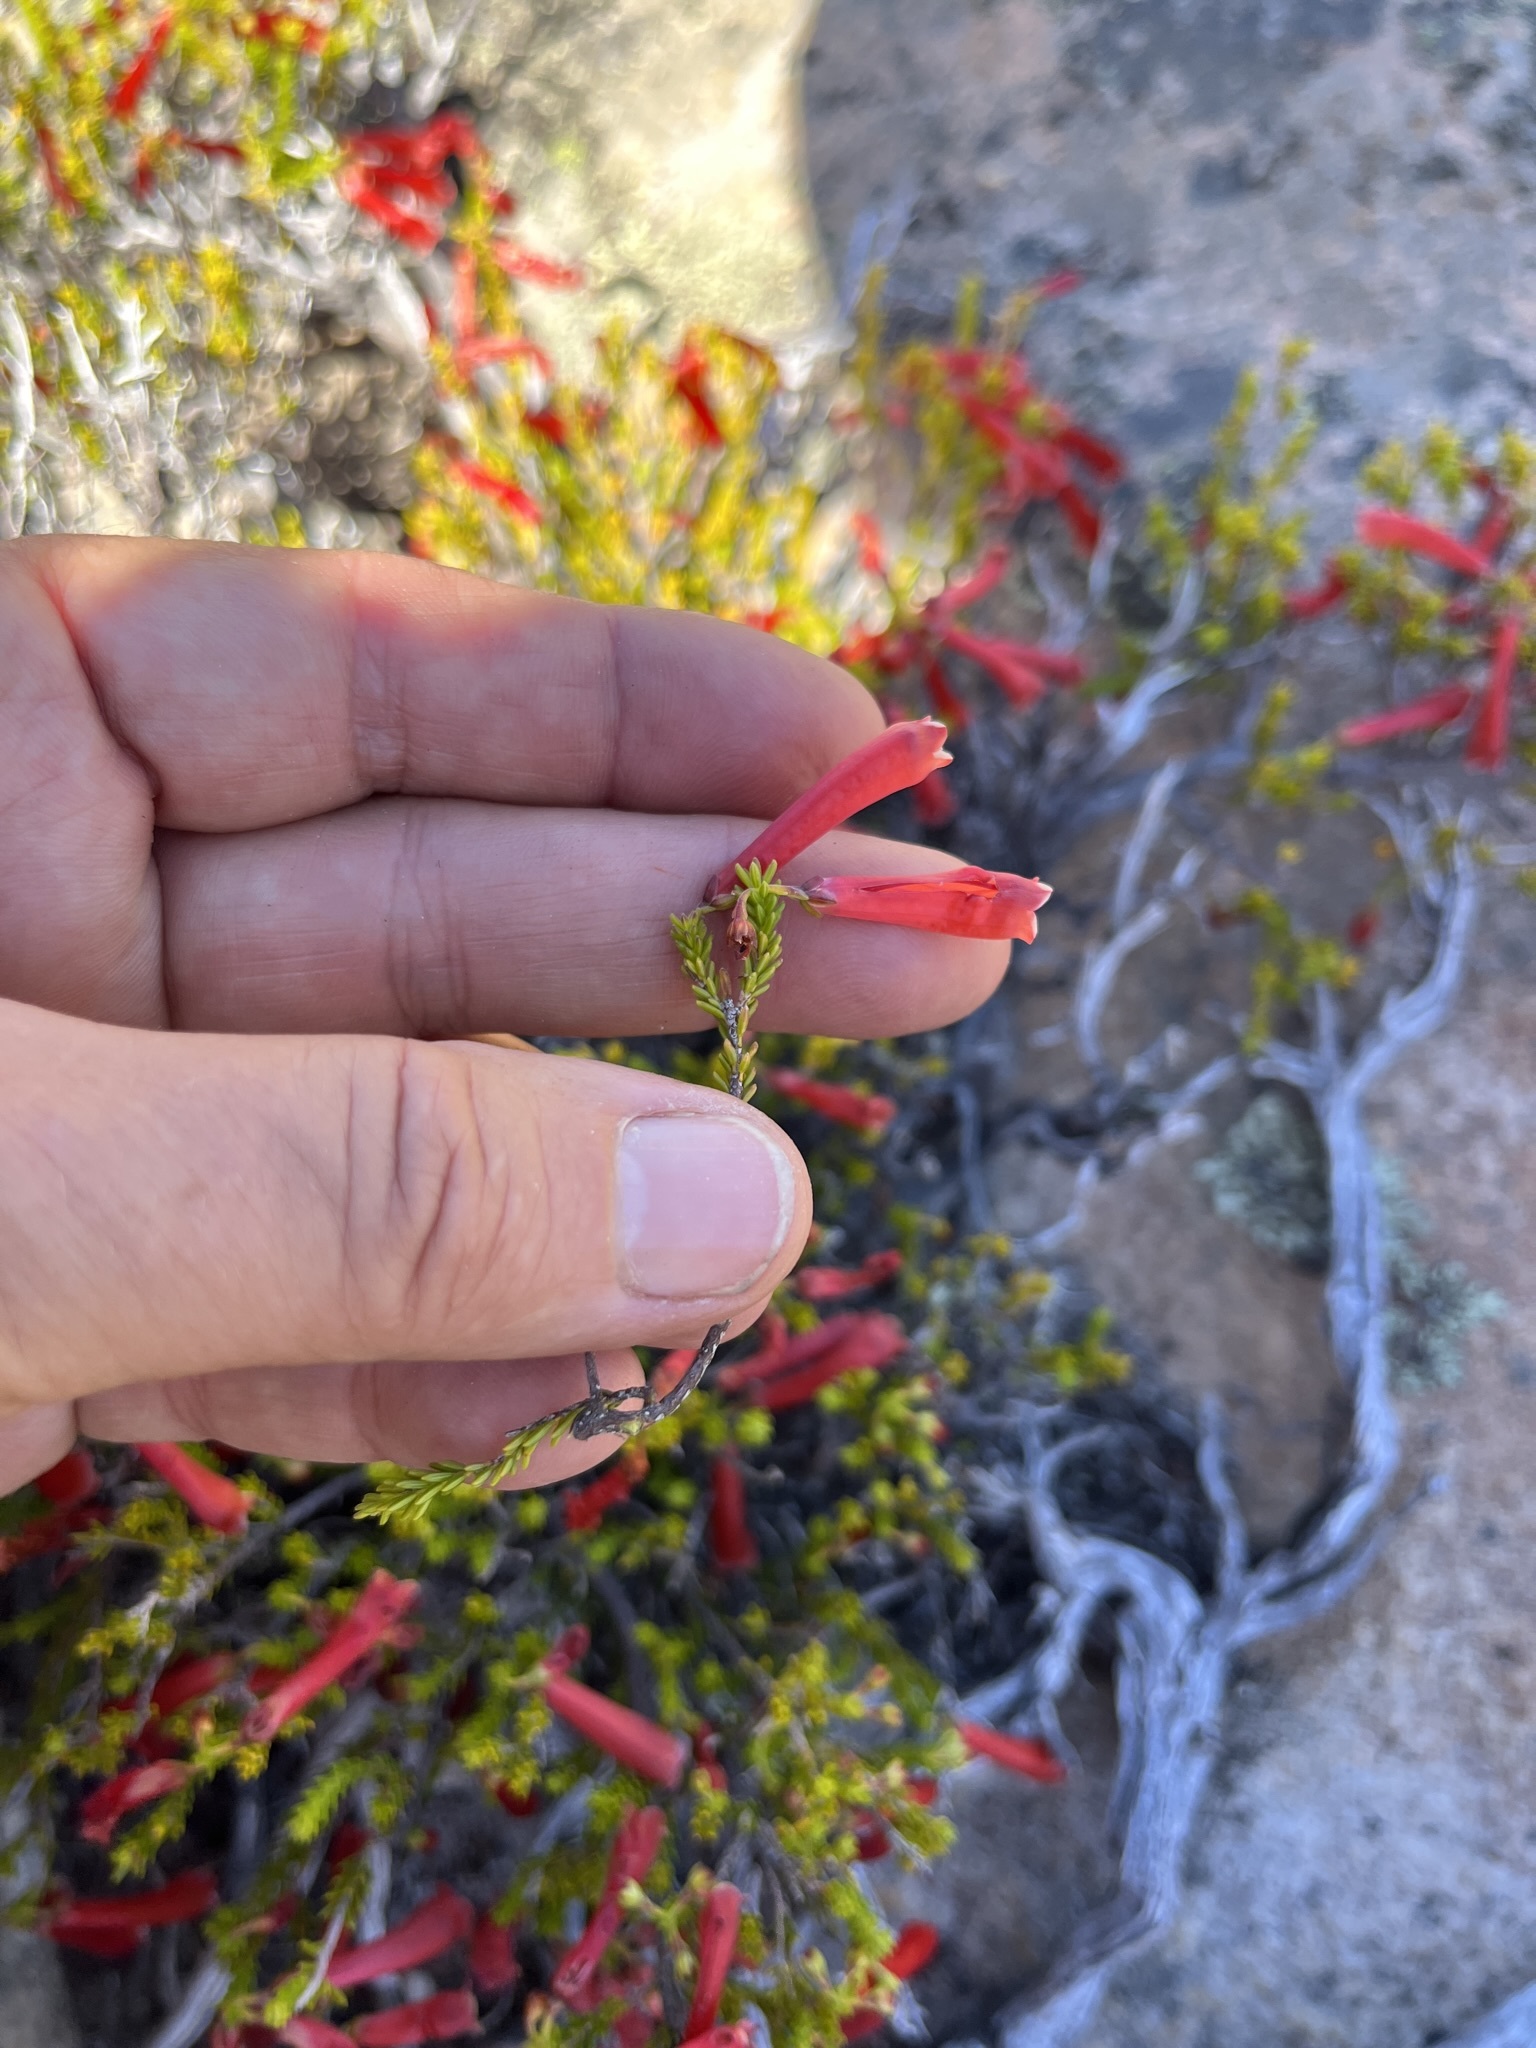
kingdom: Plantae
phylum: Tracheophyta
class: Magnoliopsida
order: Ericales
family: Ericaceae
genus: Erica
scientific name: Erica haematosiphon
